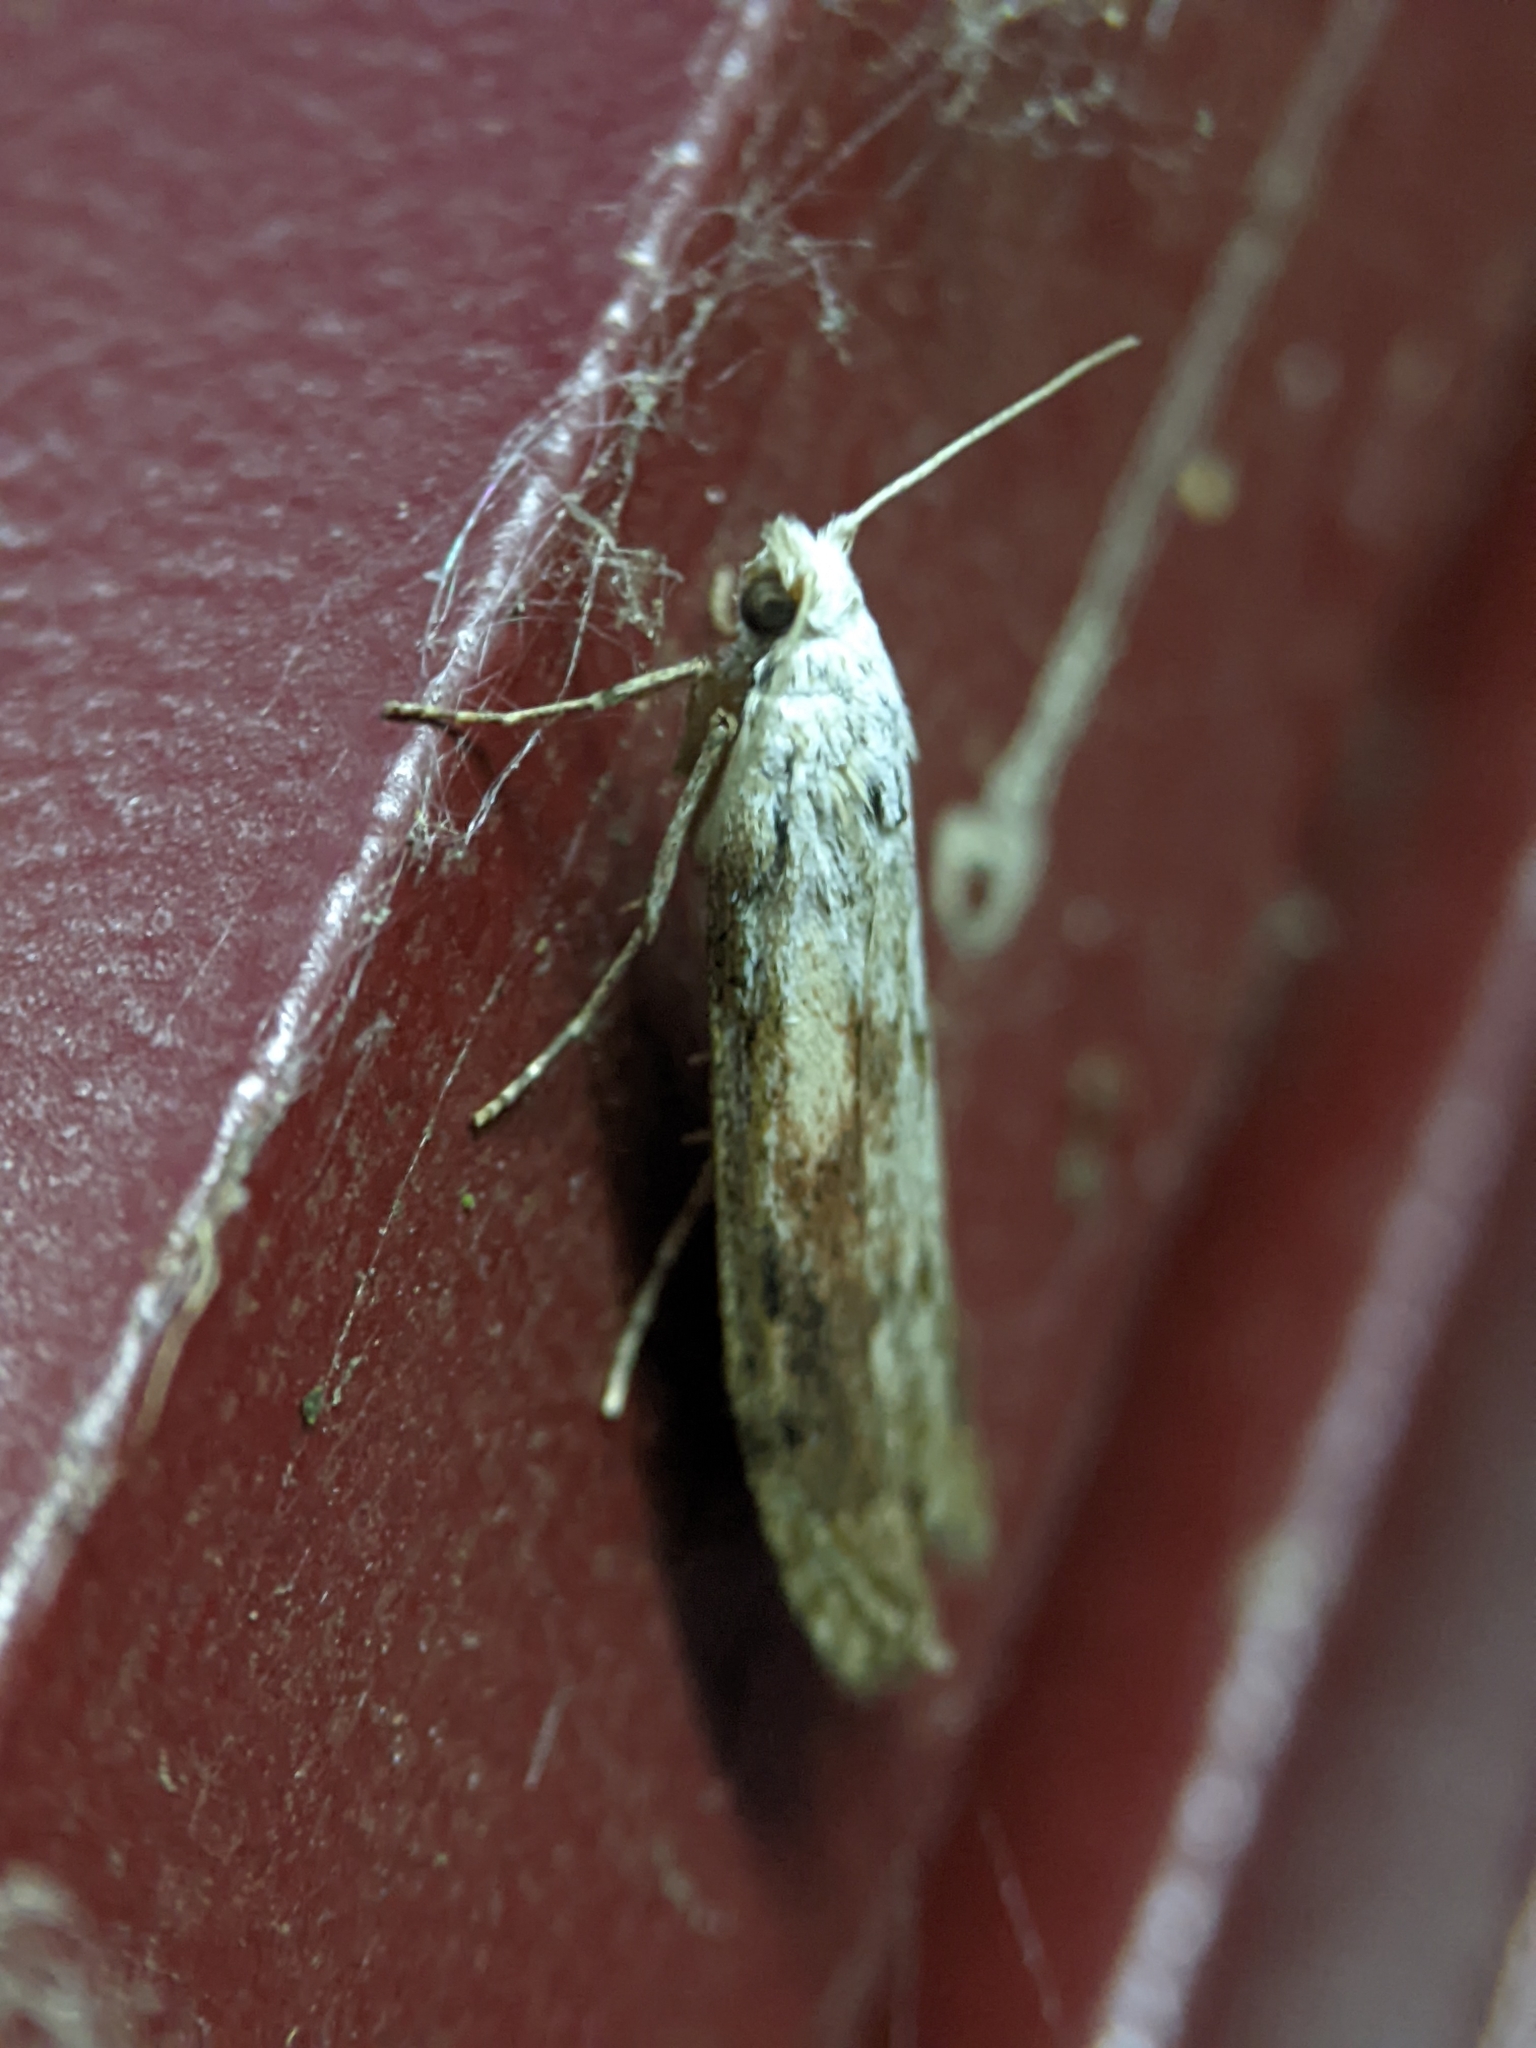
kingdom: Animalia
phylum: Arthropoda
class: Insecta
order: Lepidoptera
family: Pyralidae
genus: Aphomia
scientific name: Aphomia sociella
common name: Bee moth
